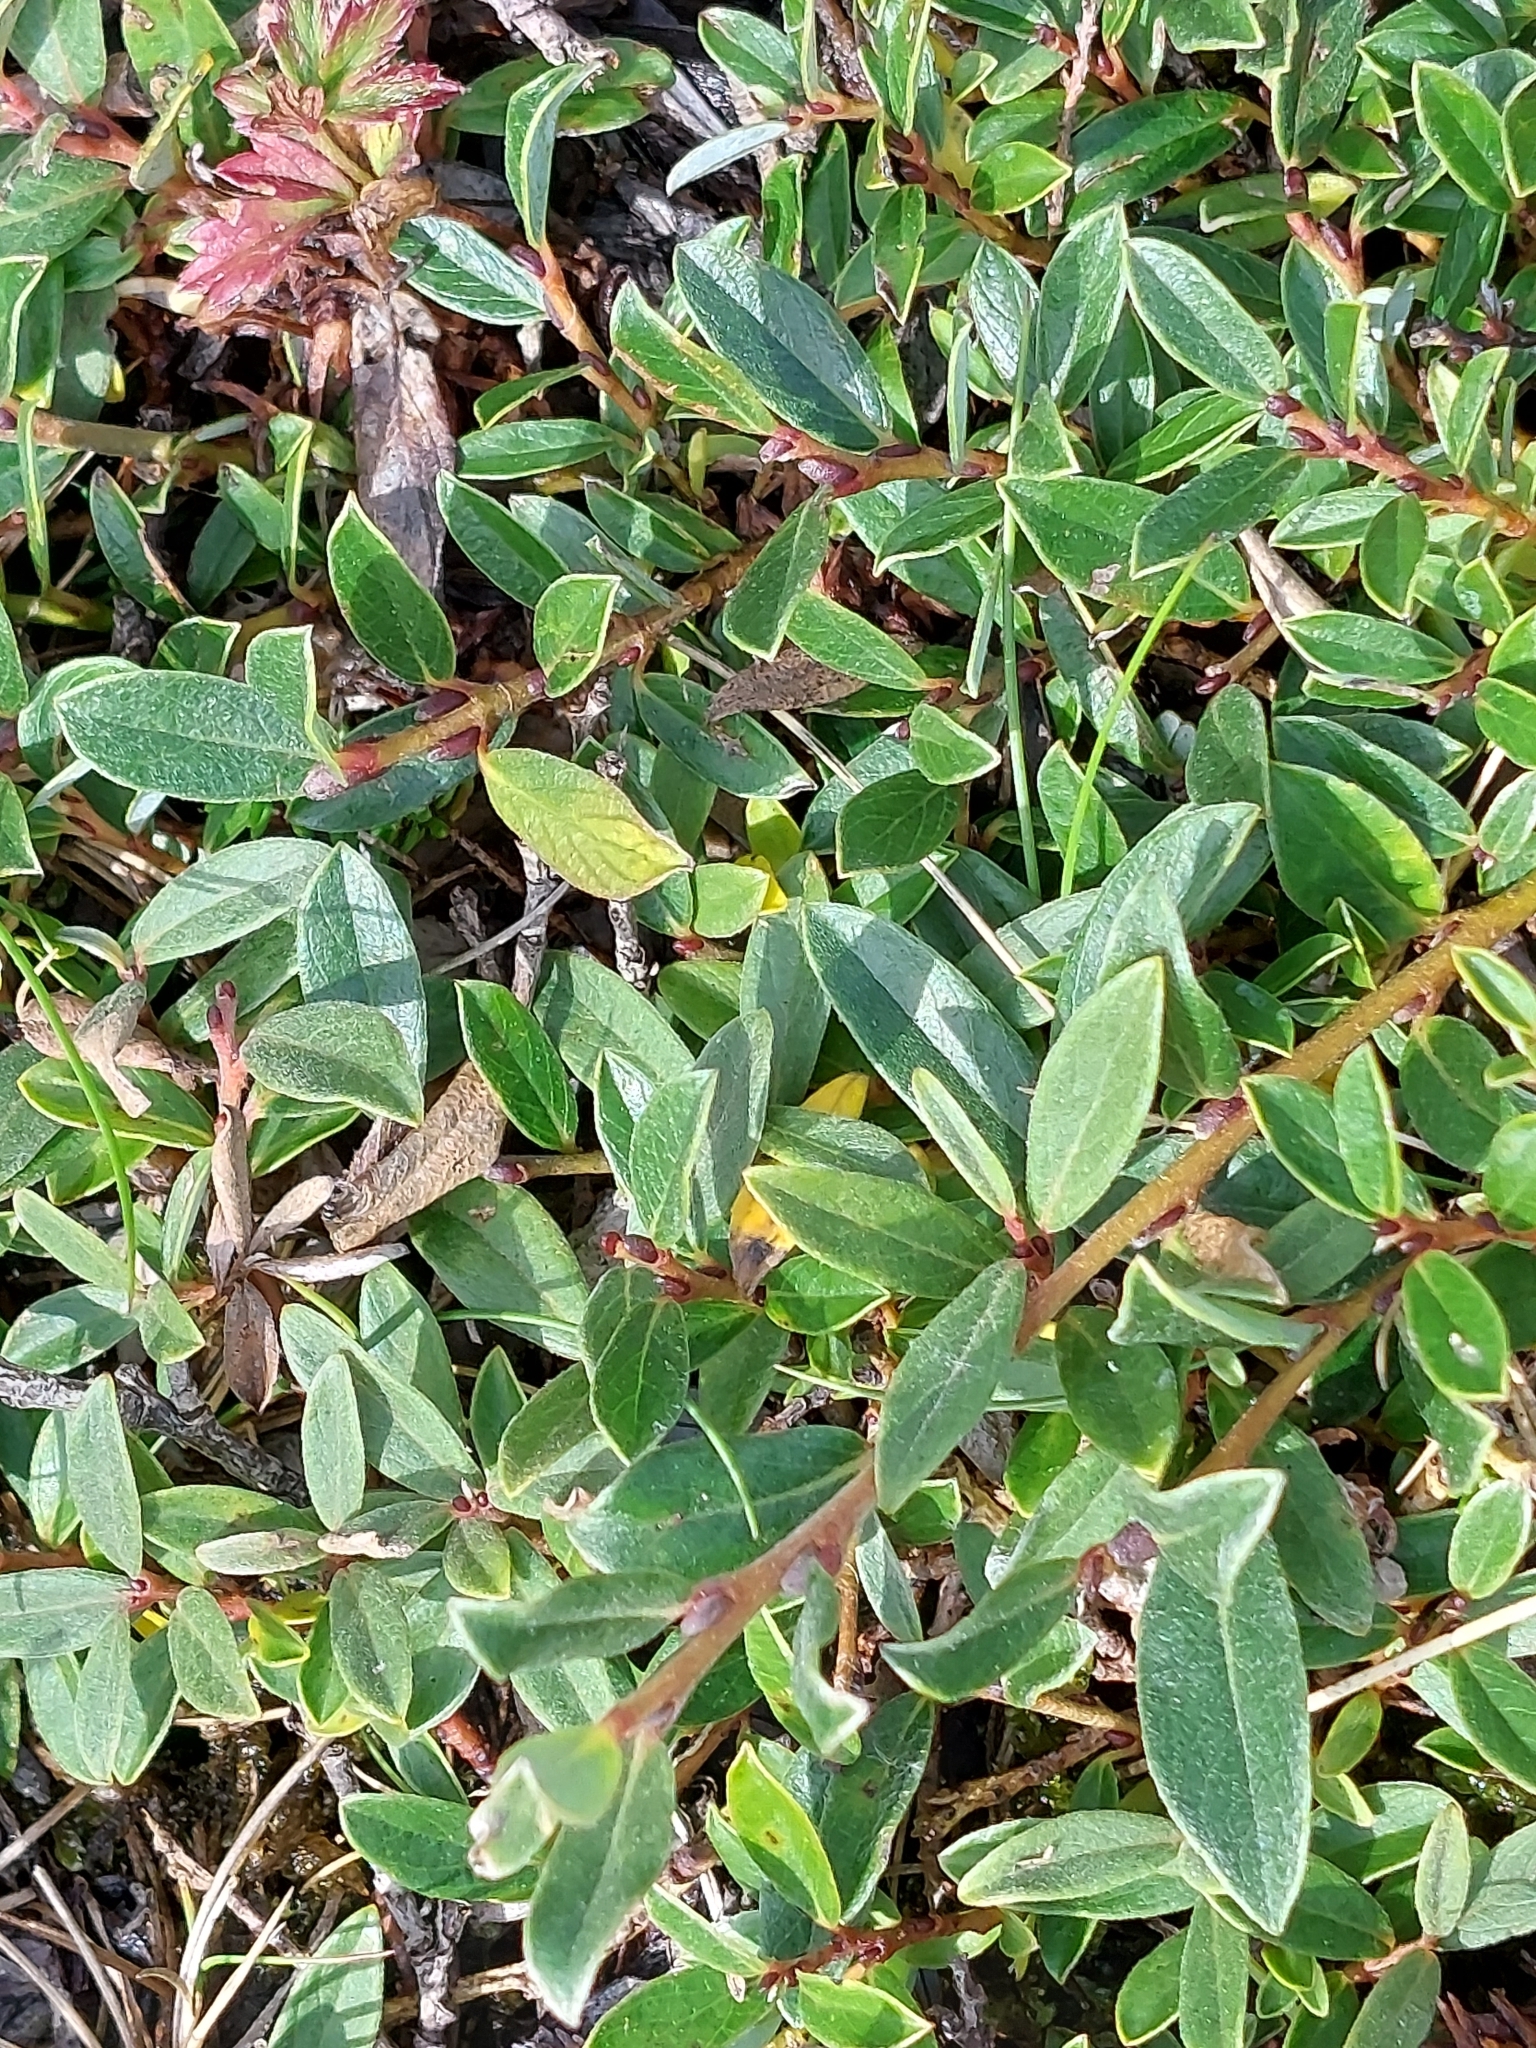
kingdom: Plantae
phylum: Tracheophyta
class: Magnoliopsida
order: Malpighiales
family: Salicaceae
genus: Salix
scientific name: Salix repens
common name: Creeping willow
